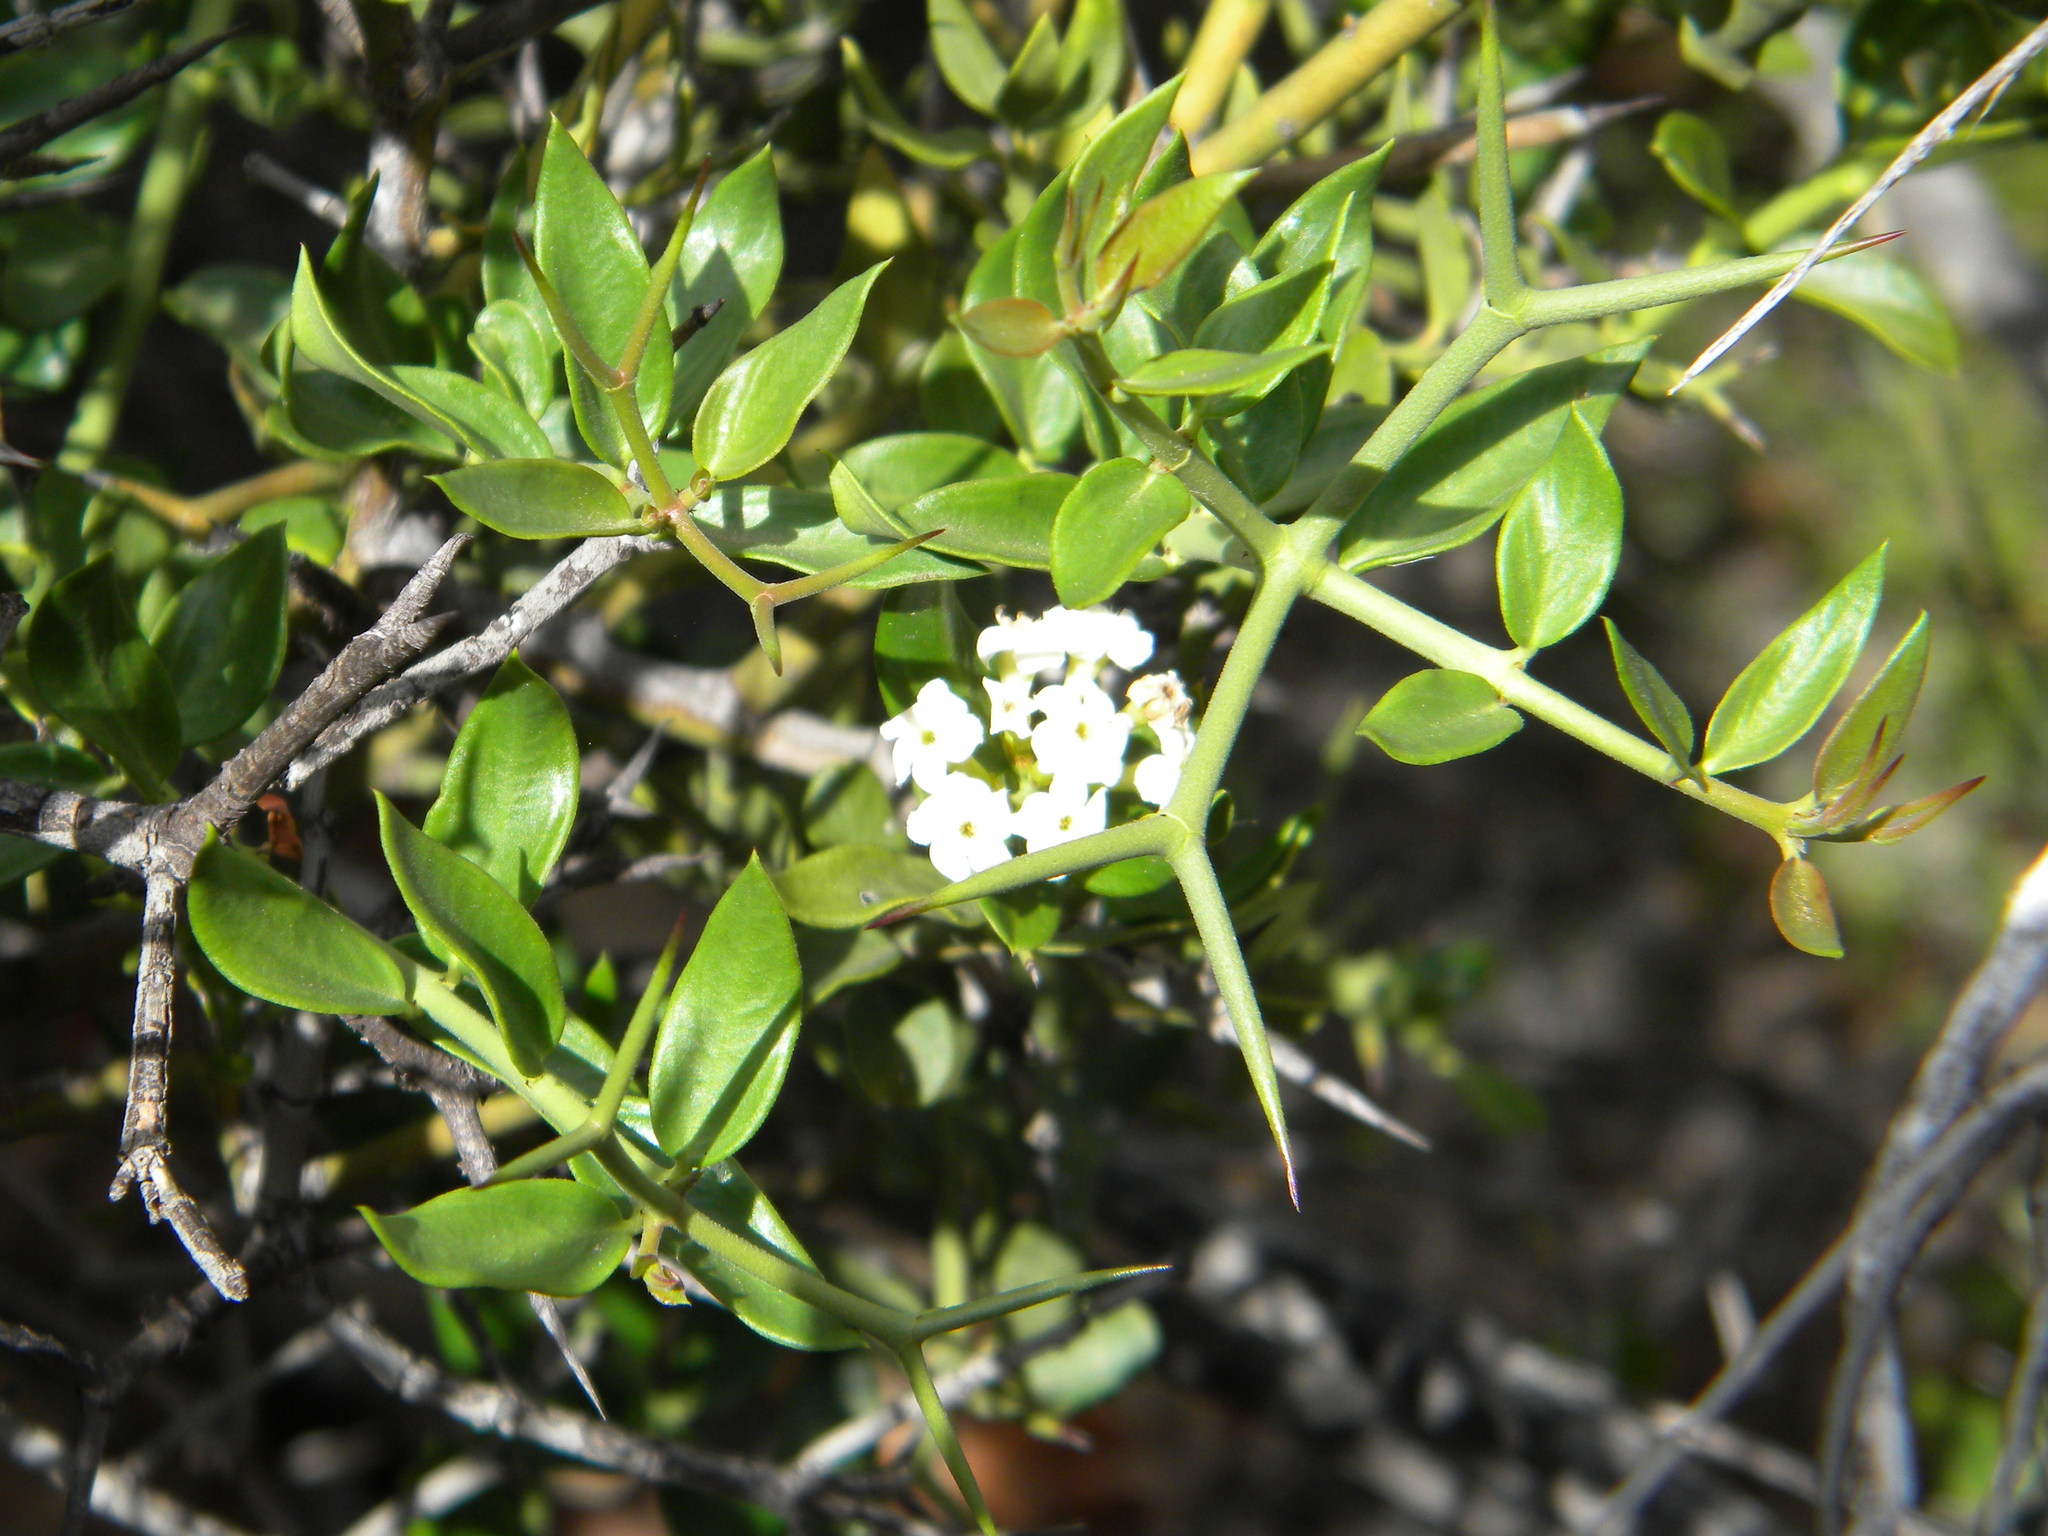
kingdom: Plantae
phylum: Tracheophyta
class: Magnoliopsida
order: Gentianales
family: Apocynaceae
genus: Carissa
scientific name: Carissa haematocarpa
